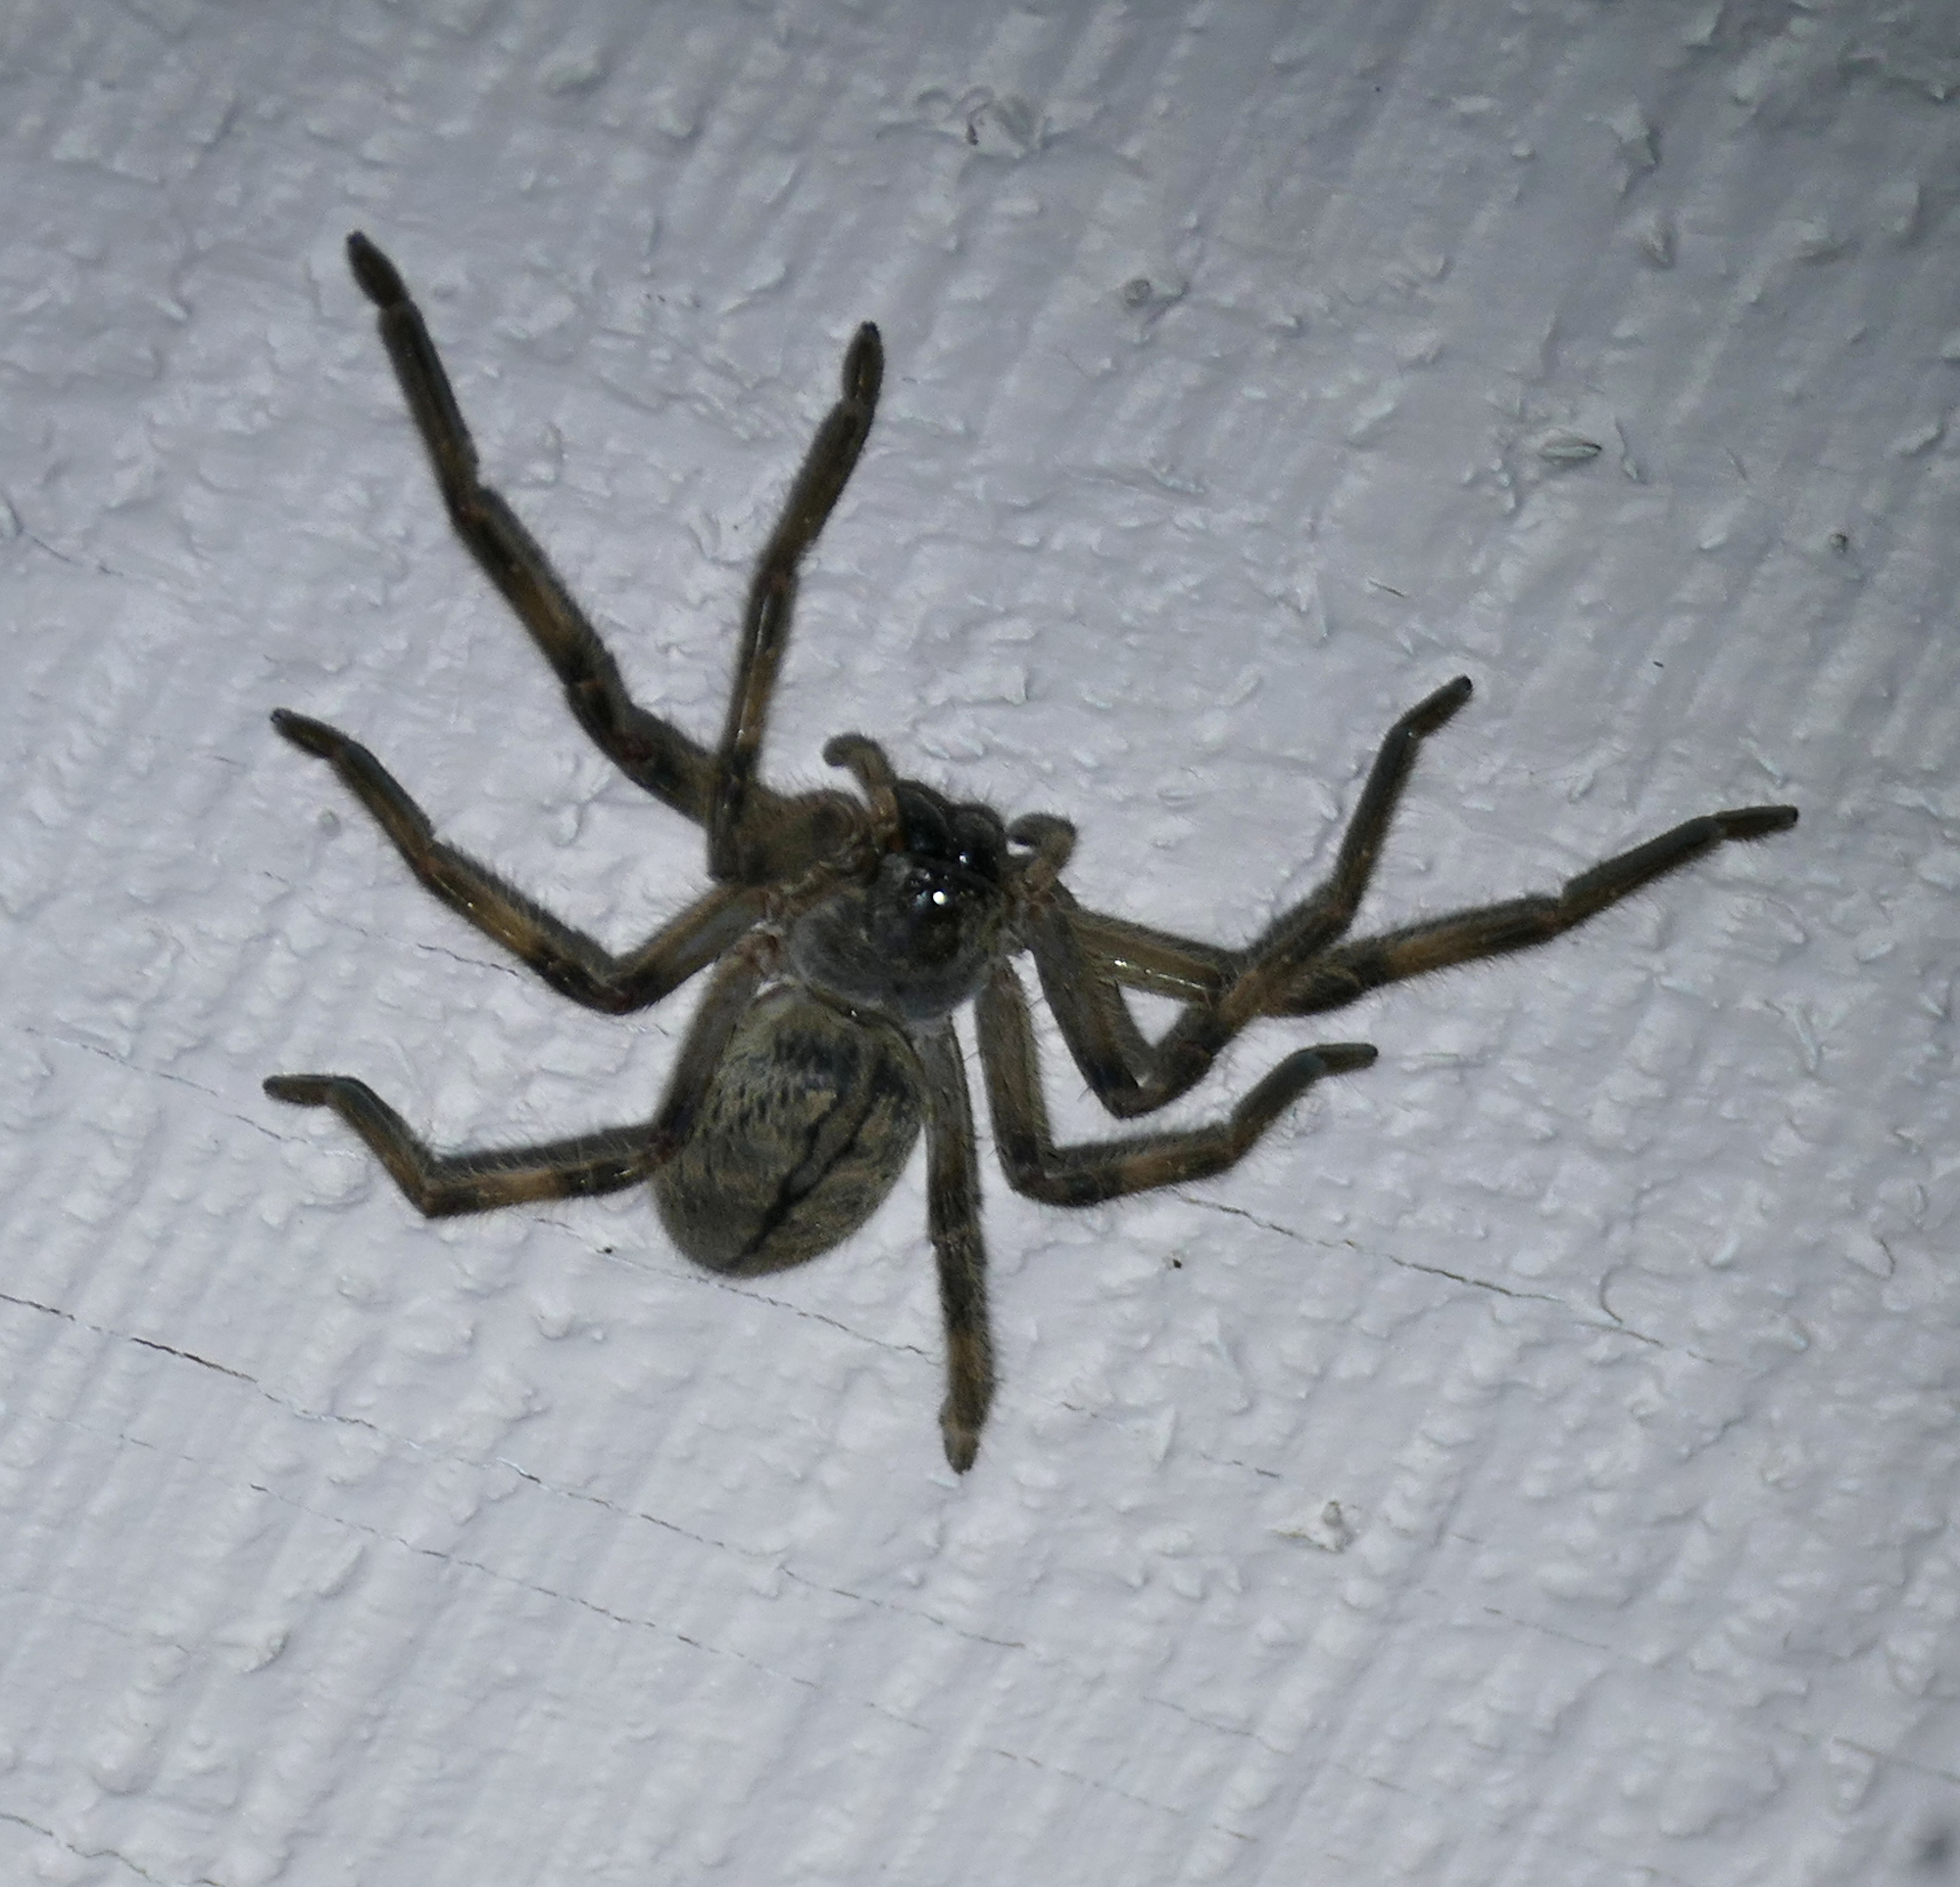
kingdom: Animalia
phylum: Arthropoda
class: Arachnida
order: Araneae
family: Sparassidae
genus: Olios
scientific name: Olios giganteus
